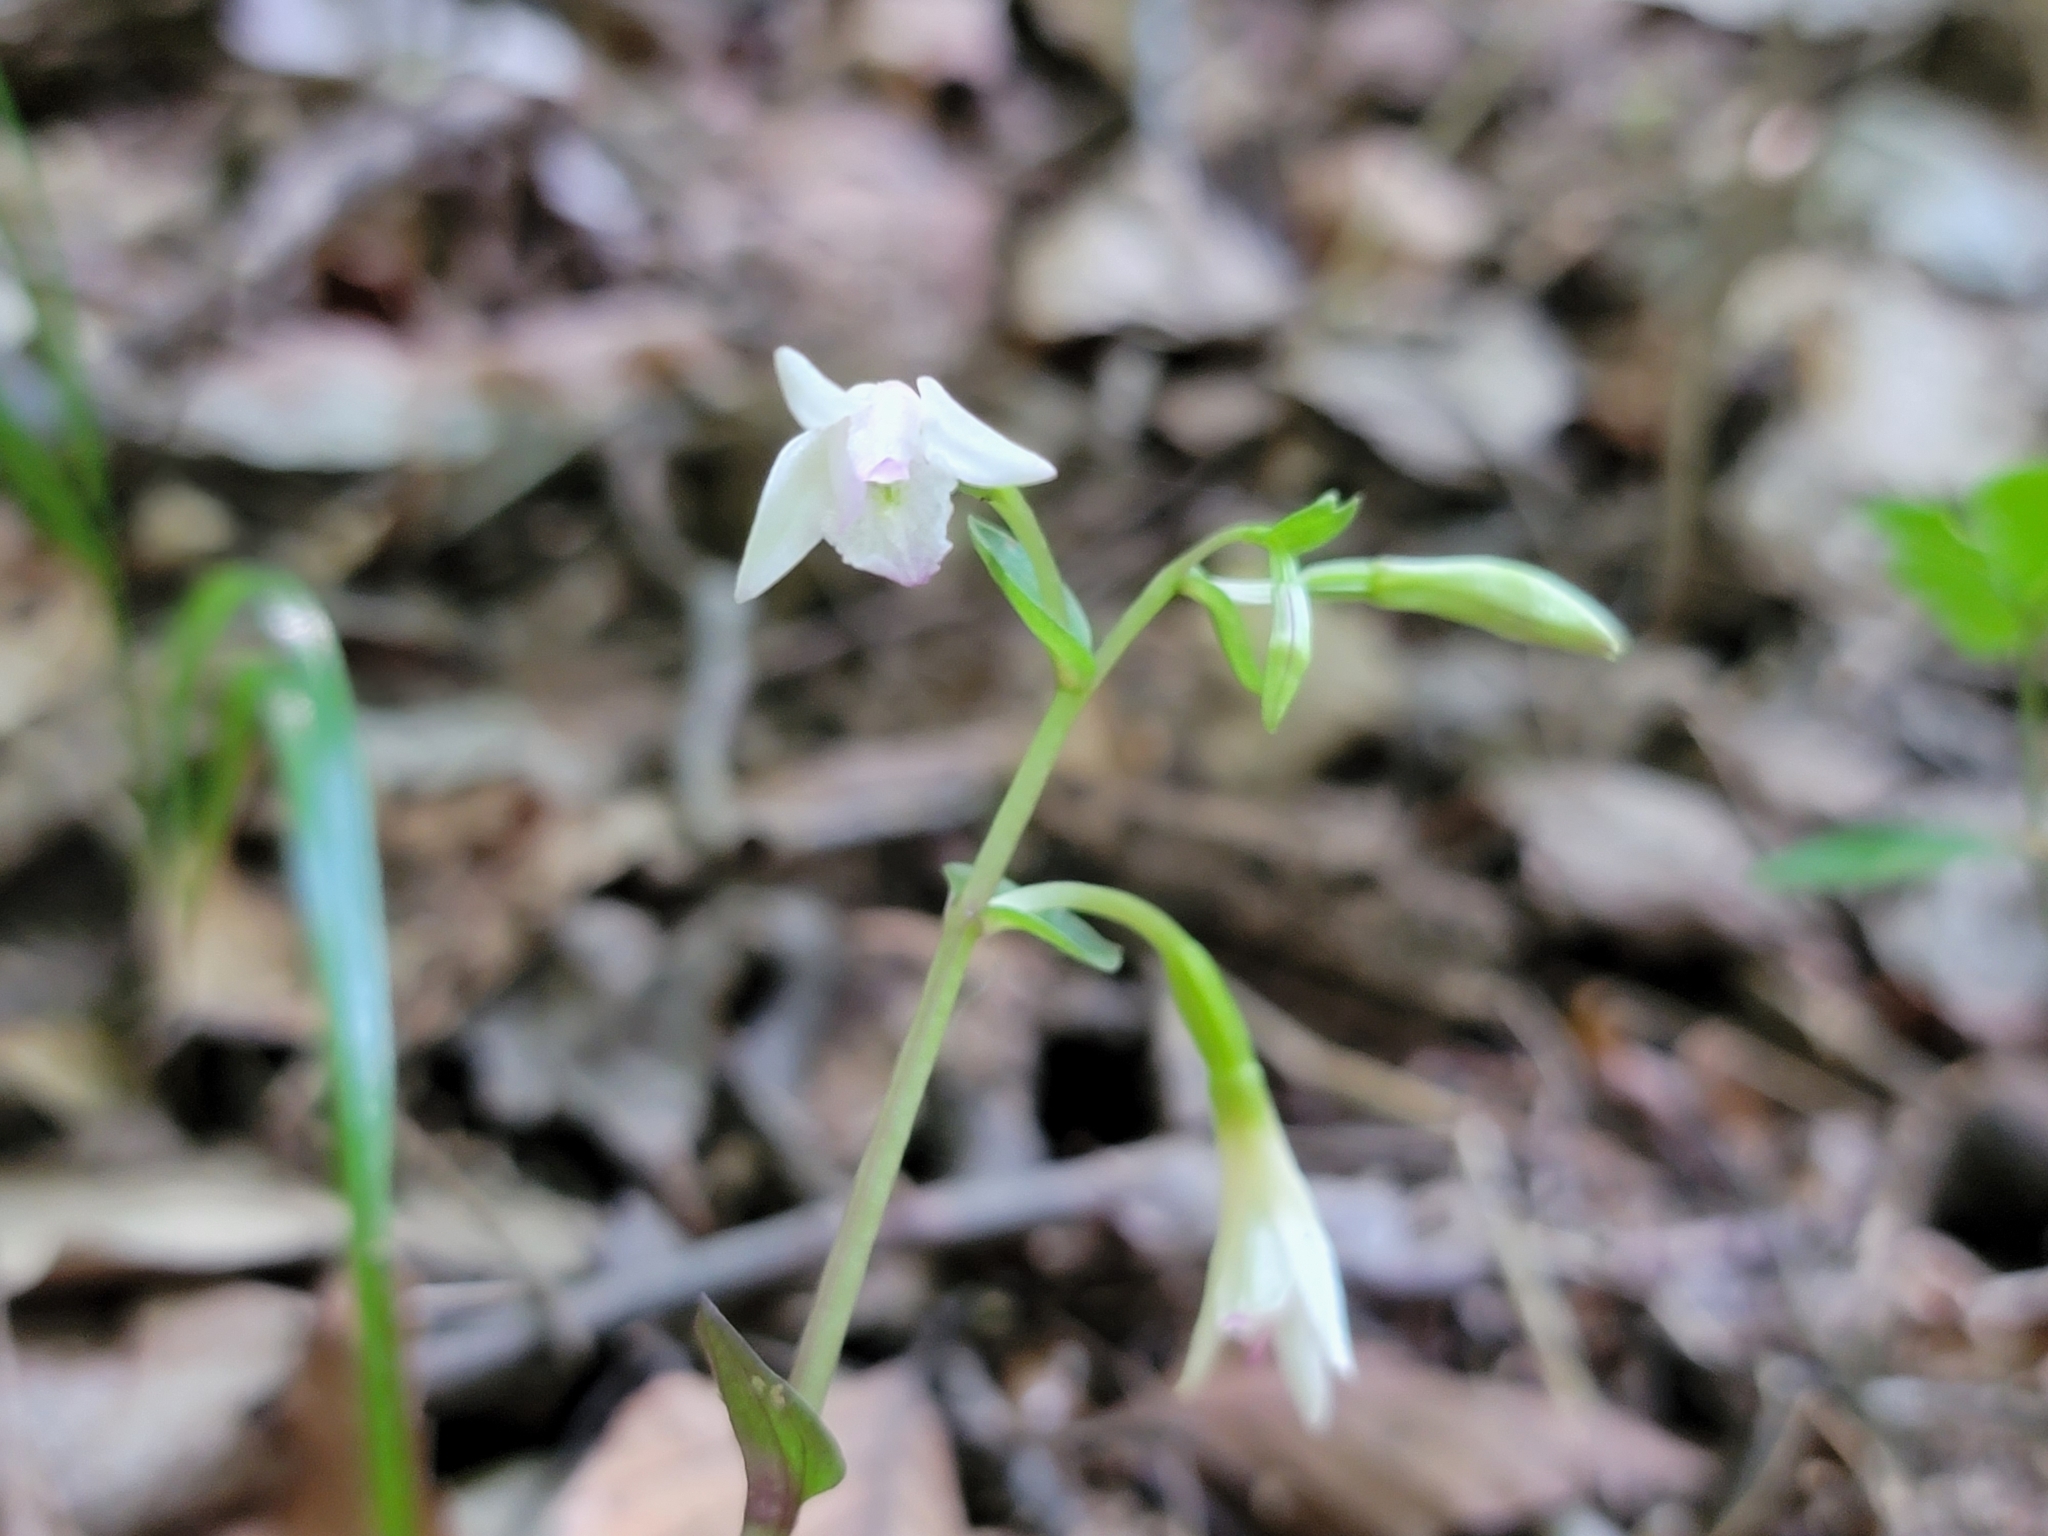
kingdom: Plantae
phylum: Tracheophyta
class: Liliopsida
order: Asparagales
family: Orchidaceae
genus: Triphora
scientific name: Triphora trianthophoros
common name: Three birds orchid
